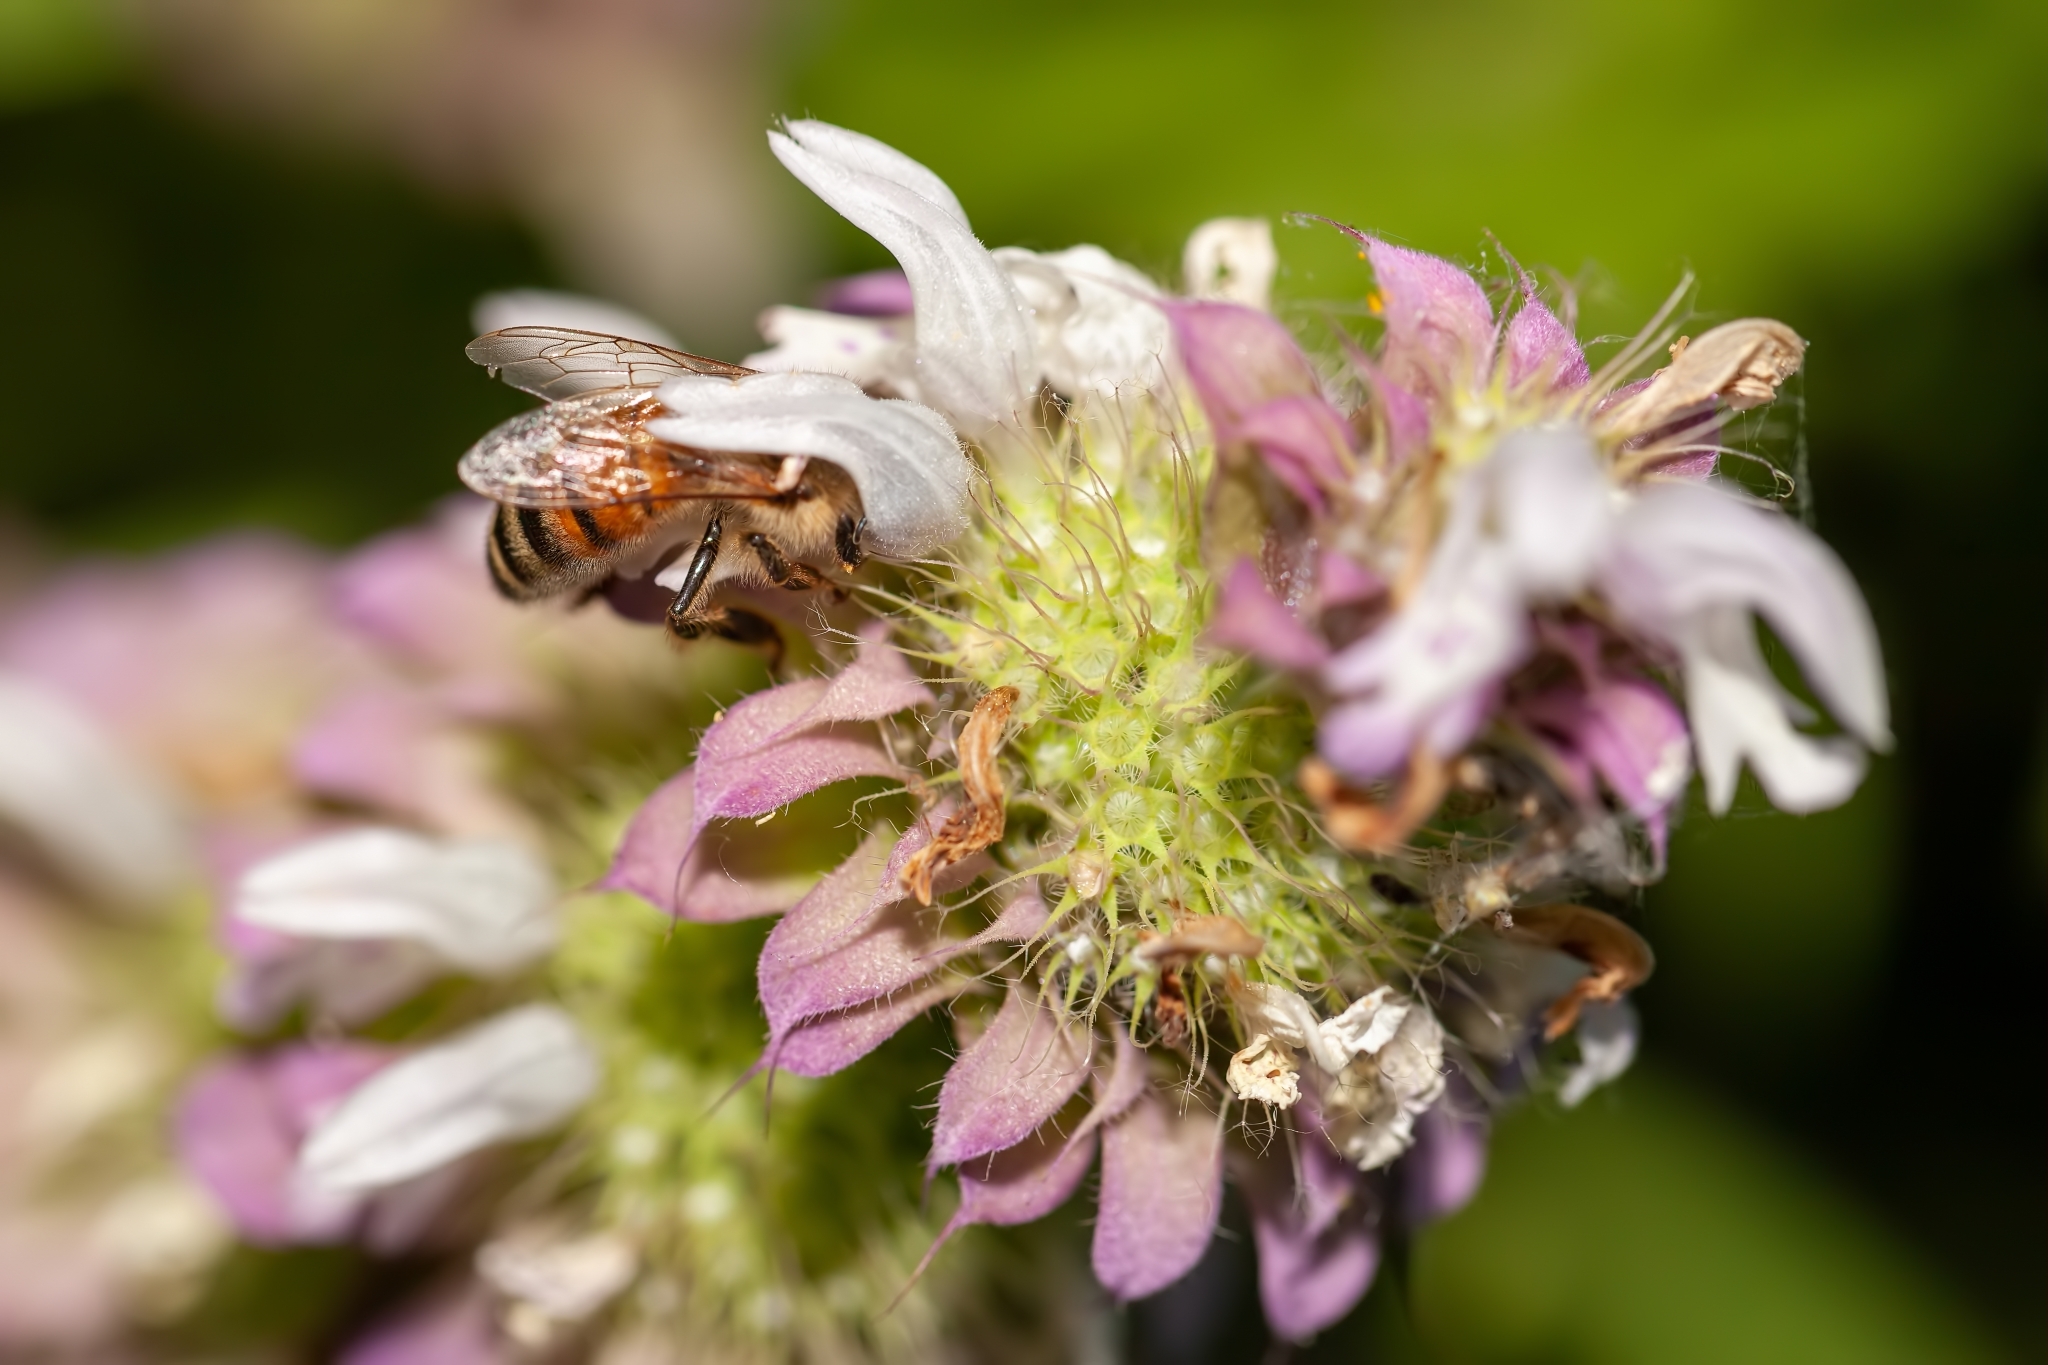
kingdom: Animalia
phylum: Arthropoda
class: Insecta
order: Hymenoptera
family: Apidae
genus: Apis
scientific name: Apis mellifera
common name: Honey bee
